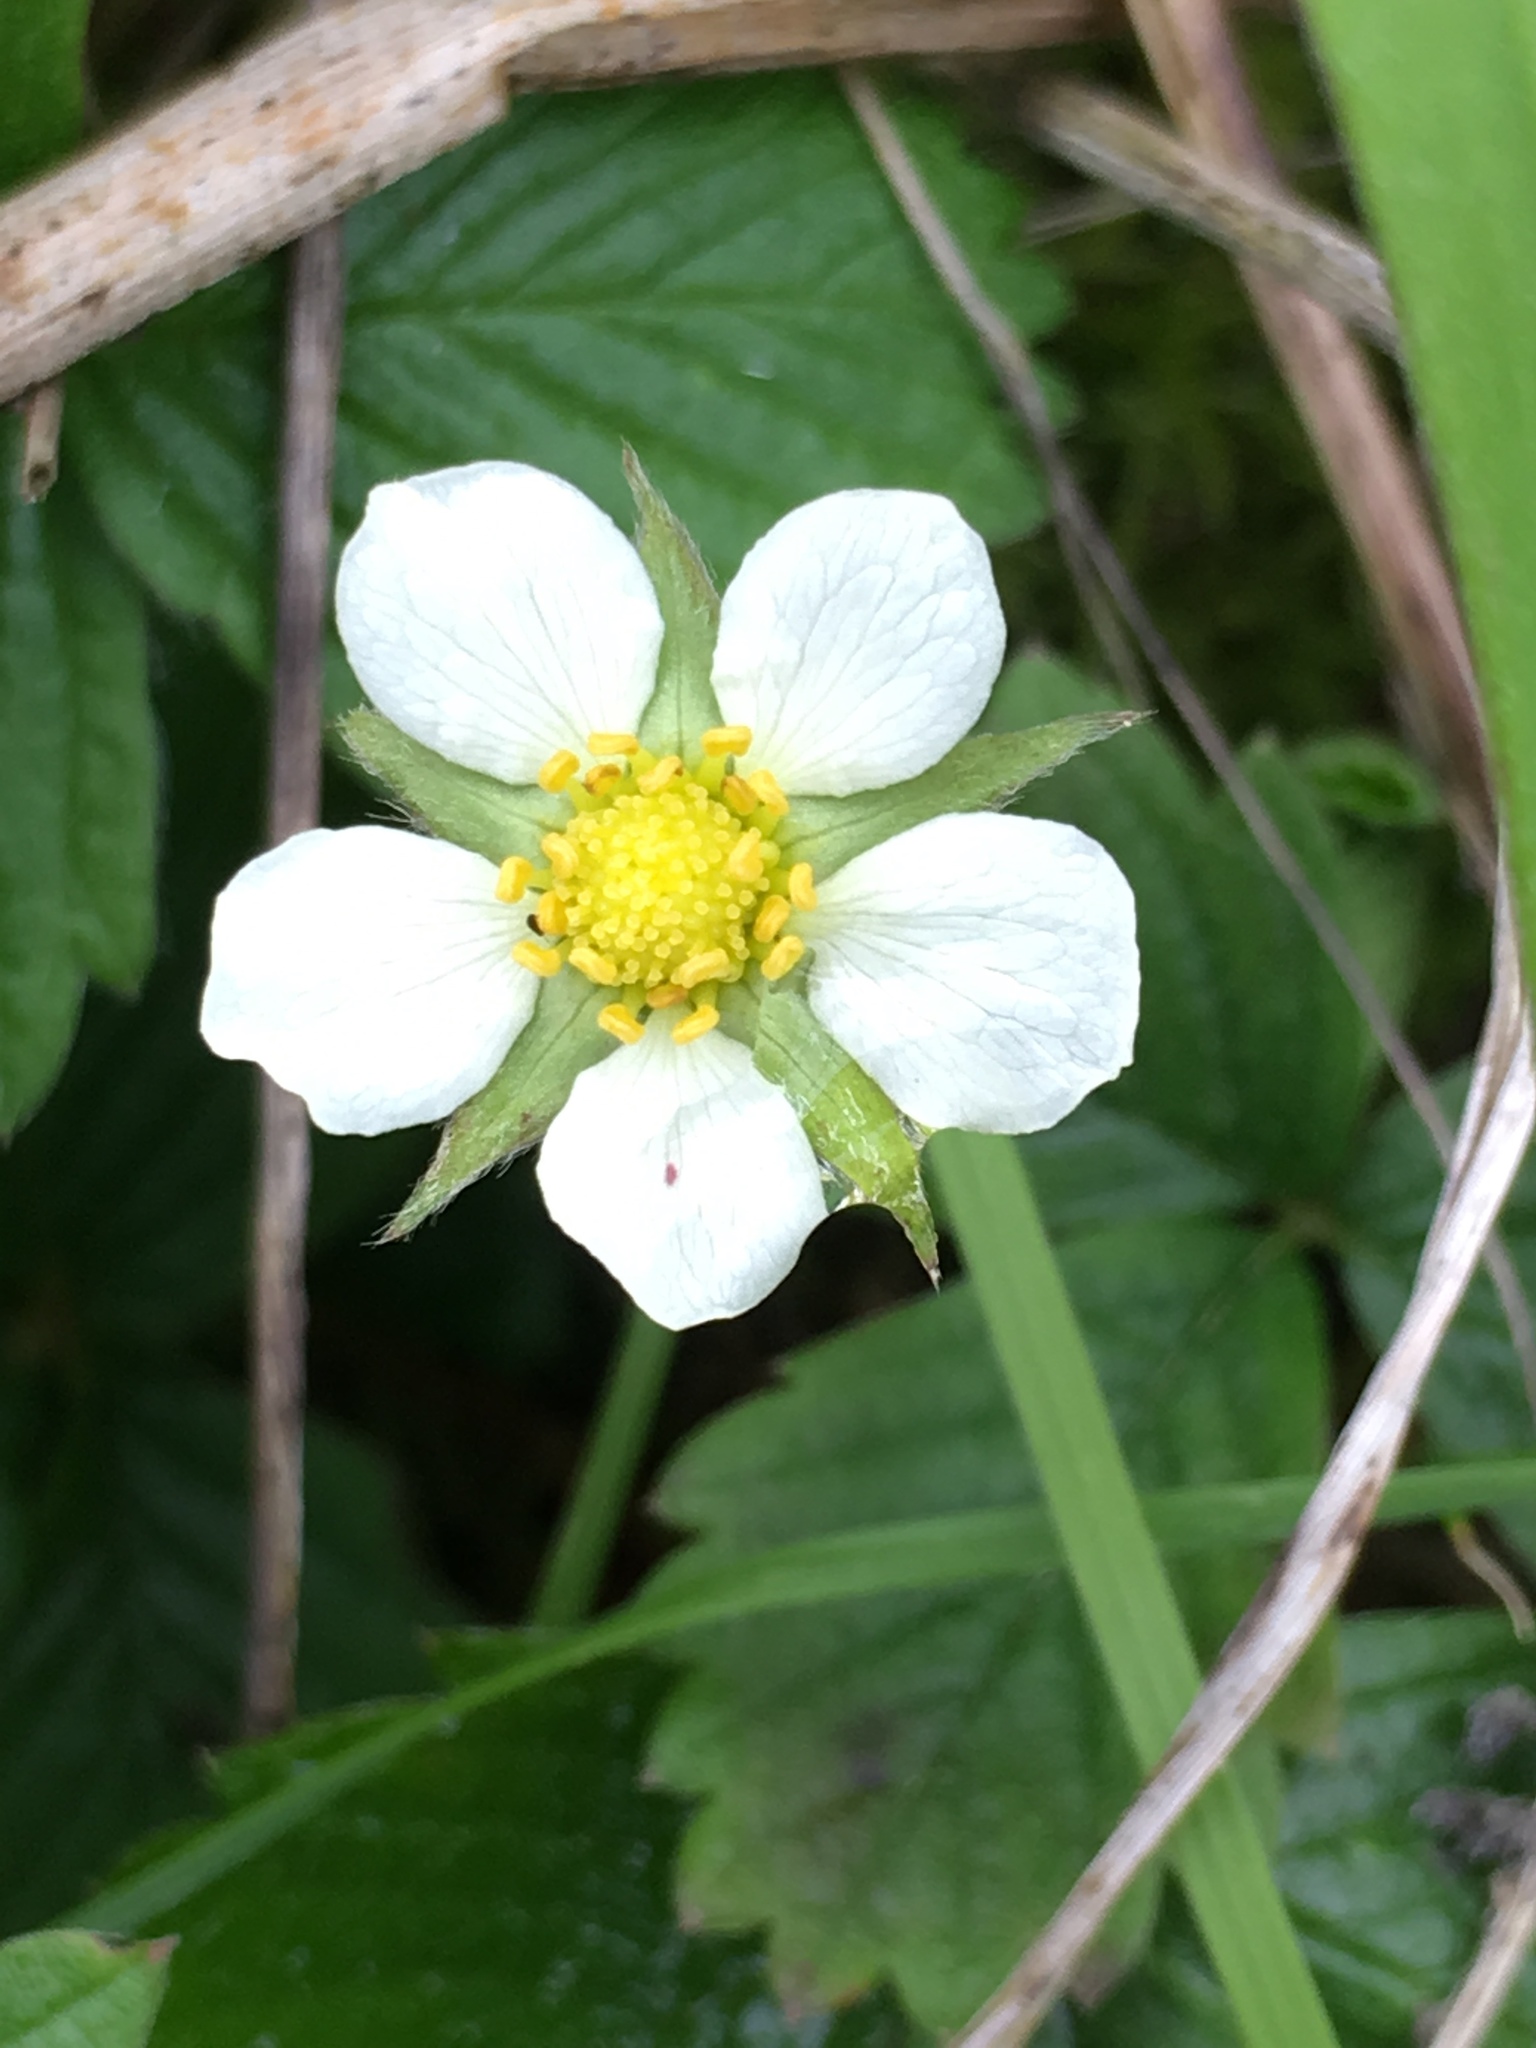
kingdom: Plantae
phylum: Tracheophyta
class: Magnoliopsida
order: Rosales
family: Rosaceae
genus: Fragaria
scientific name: Fragaria chiloensis
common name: Beach strawberry
